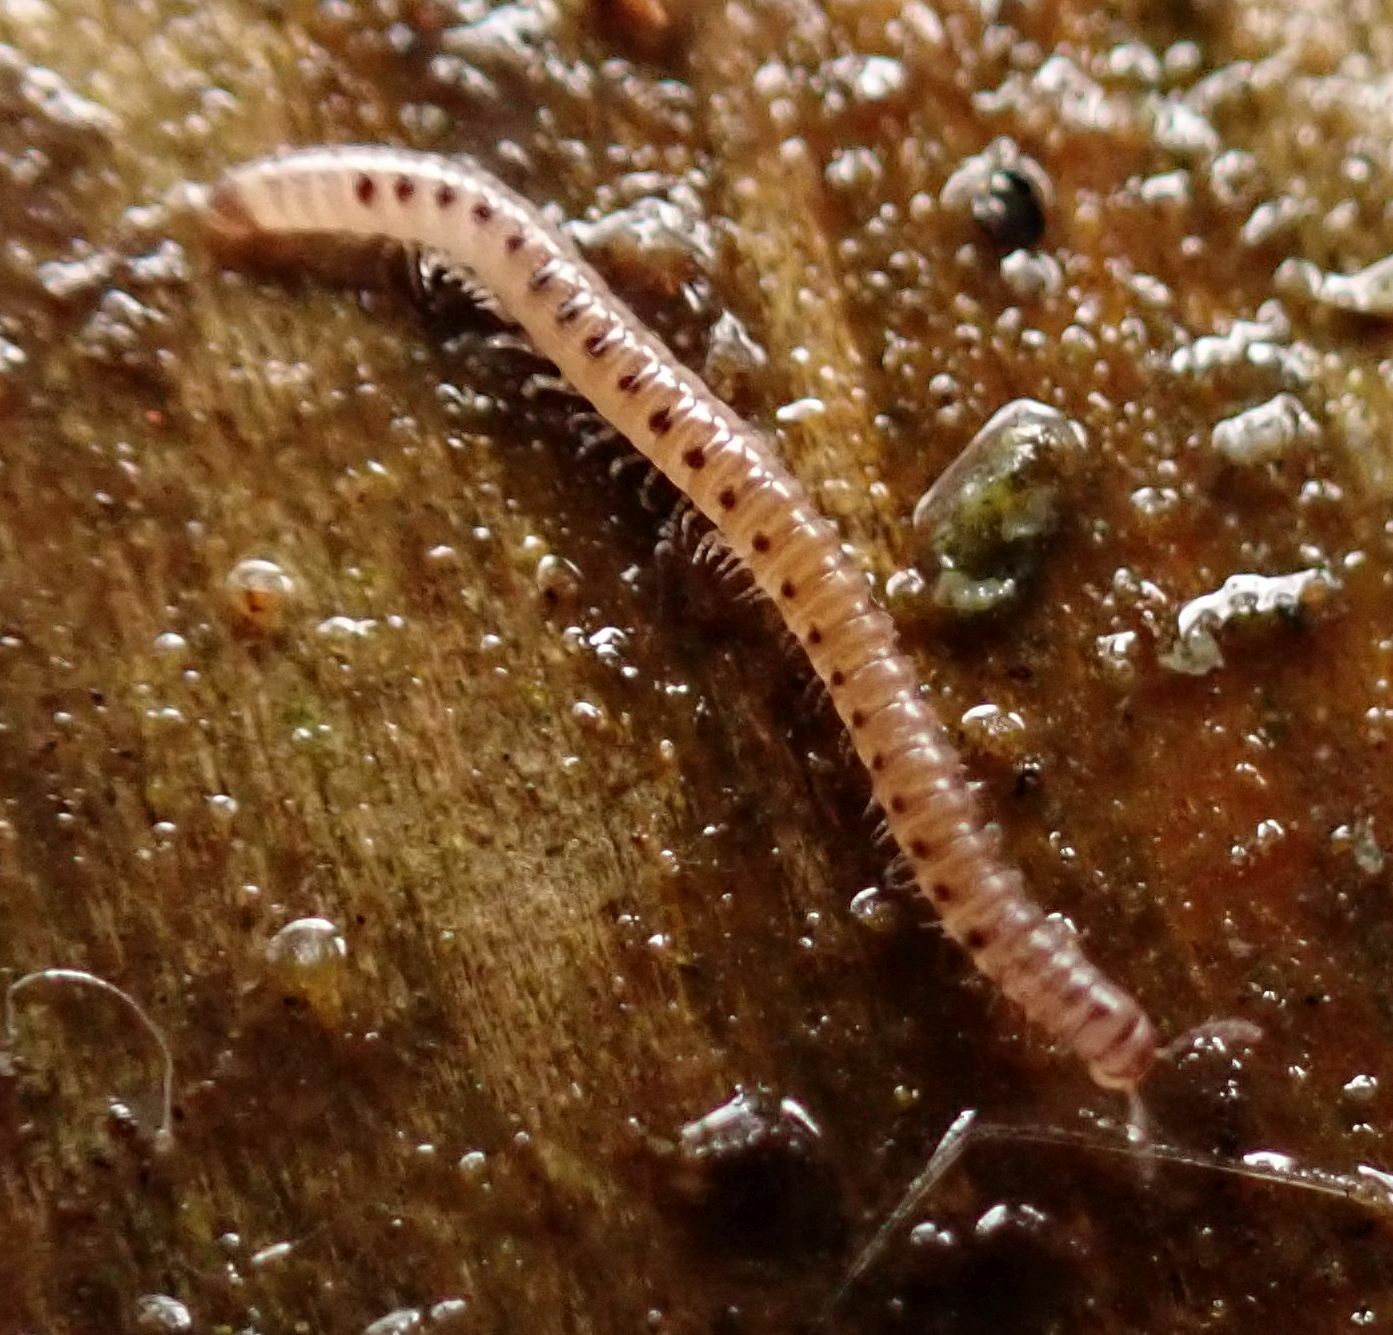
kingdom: Animalia
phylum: Arthropoda
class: Diplopoda
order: Julida
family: Blaniulidae
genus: Proteroiulus
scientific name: Proteroiulus fuscus
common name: Millipede
